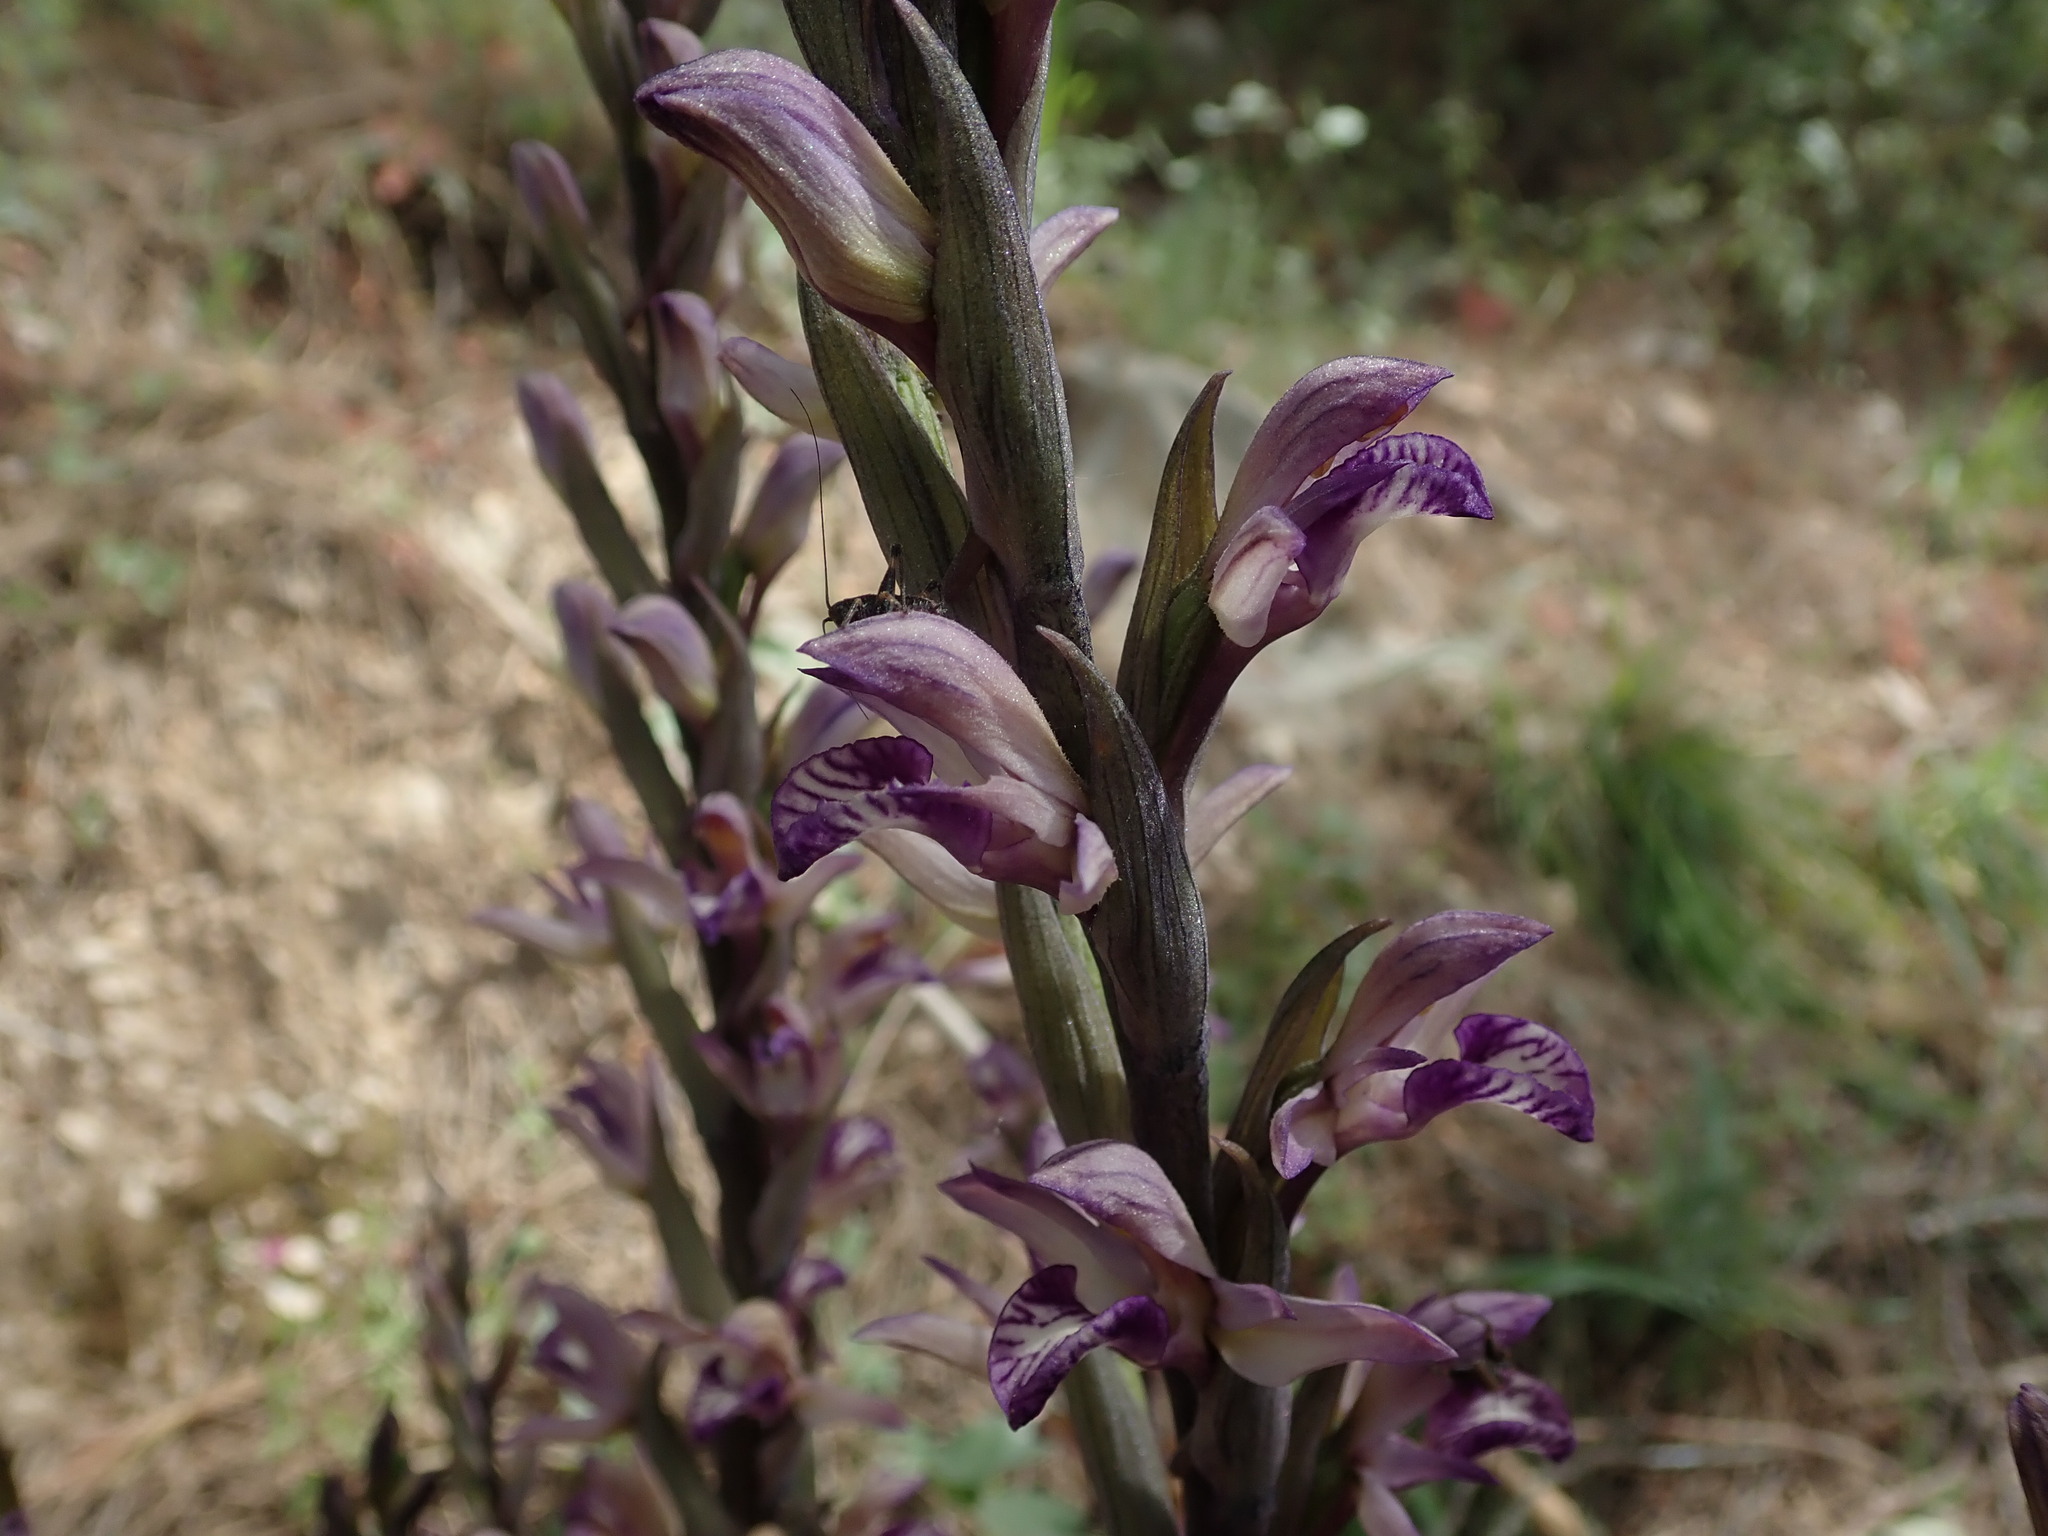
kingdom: Plantae
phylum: Tracheophyta
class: Liliopsida
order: Asparagales
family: Orchidaceae
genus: Limodorum
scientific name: Limodorum abortivum
